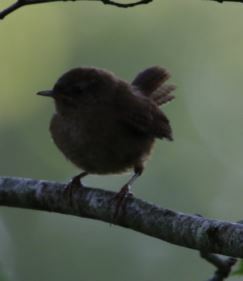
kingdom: Animalia
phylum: Chordata
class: Aves
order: Passeriformes
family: Troglodytidae
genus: Troglodytes
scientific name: Troglodytes troglodytes
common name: Eurasian wren
